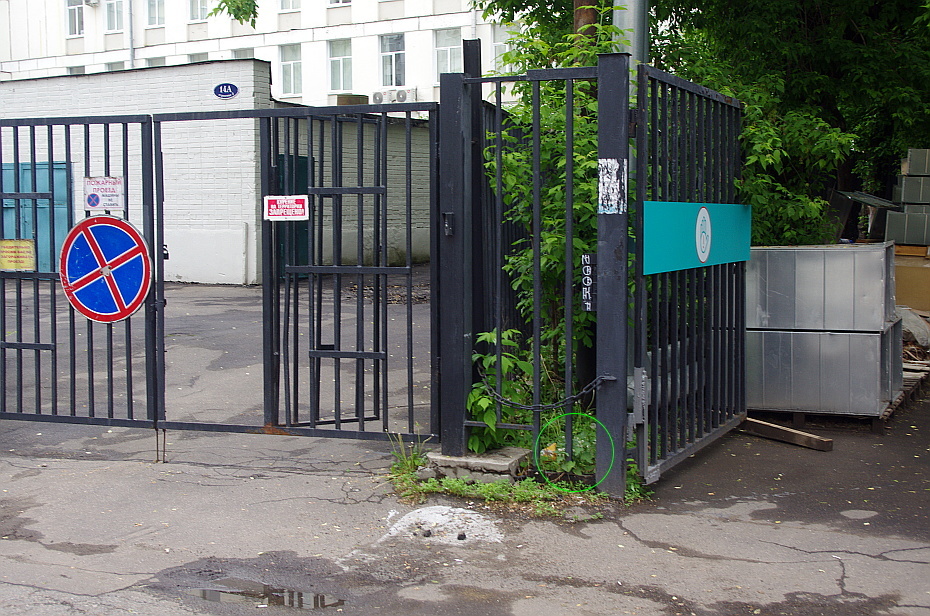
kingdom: Plantae
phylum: Tracheophyta
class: Magnoliopsida
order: Lamiales
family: Lamiaceae
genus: Lamium
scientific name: Lamium album
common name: White dead-nettle
